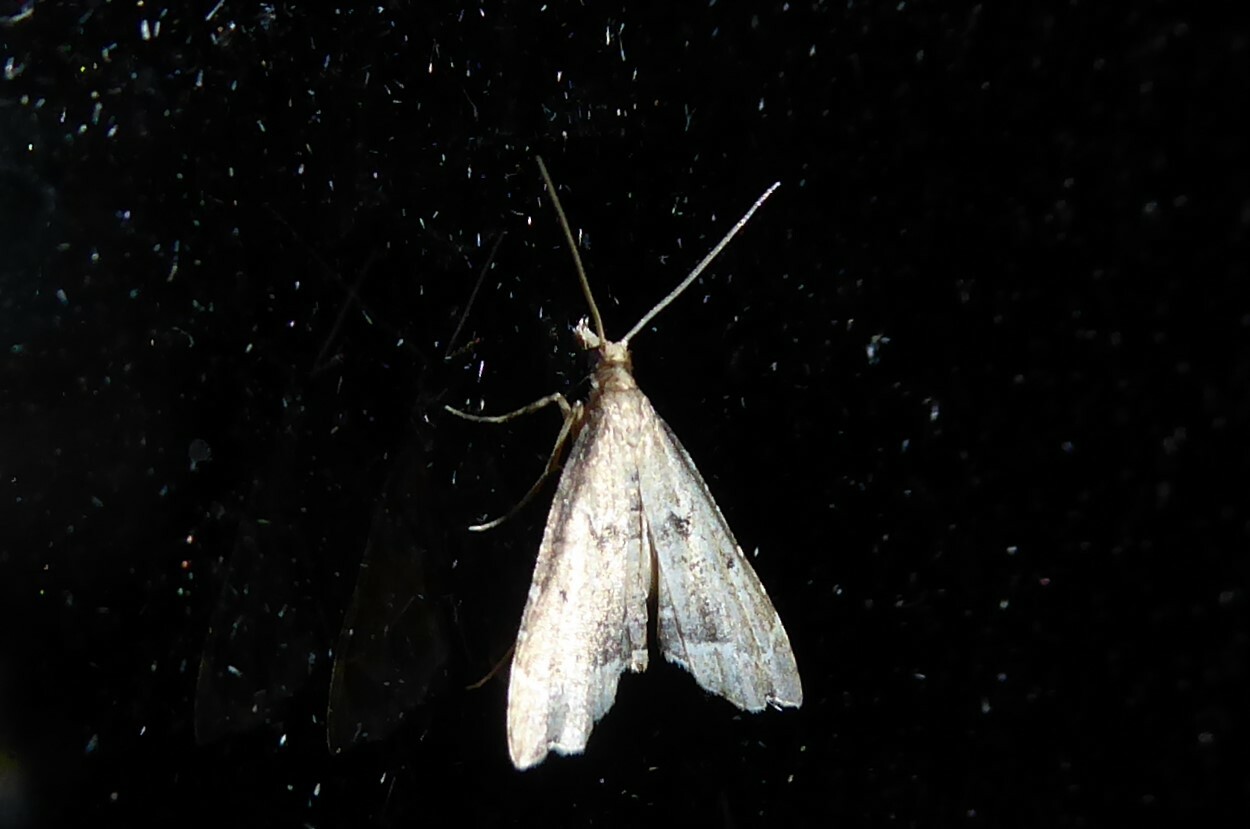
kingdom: Animalia
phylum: Arthropoda
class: Insecta
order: Lepidoptera
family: Crambidae
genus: Diplopseustis
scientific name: Diplopseustis perieresalis
